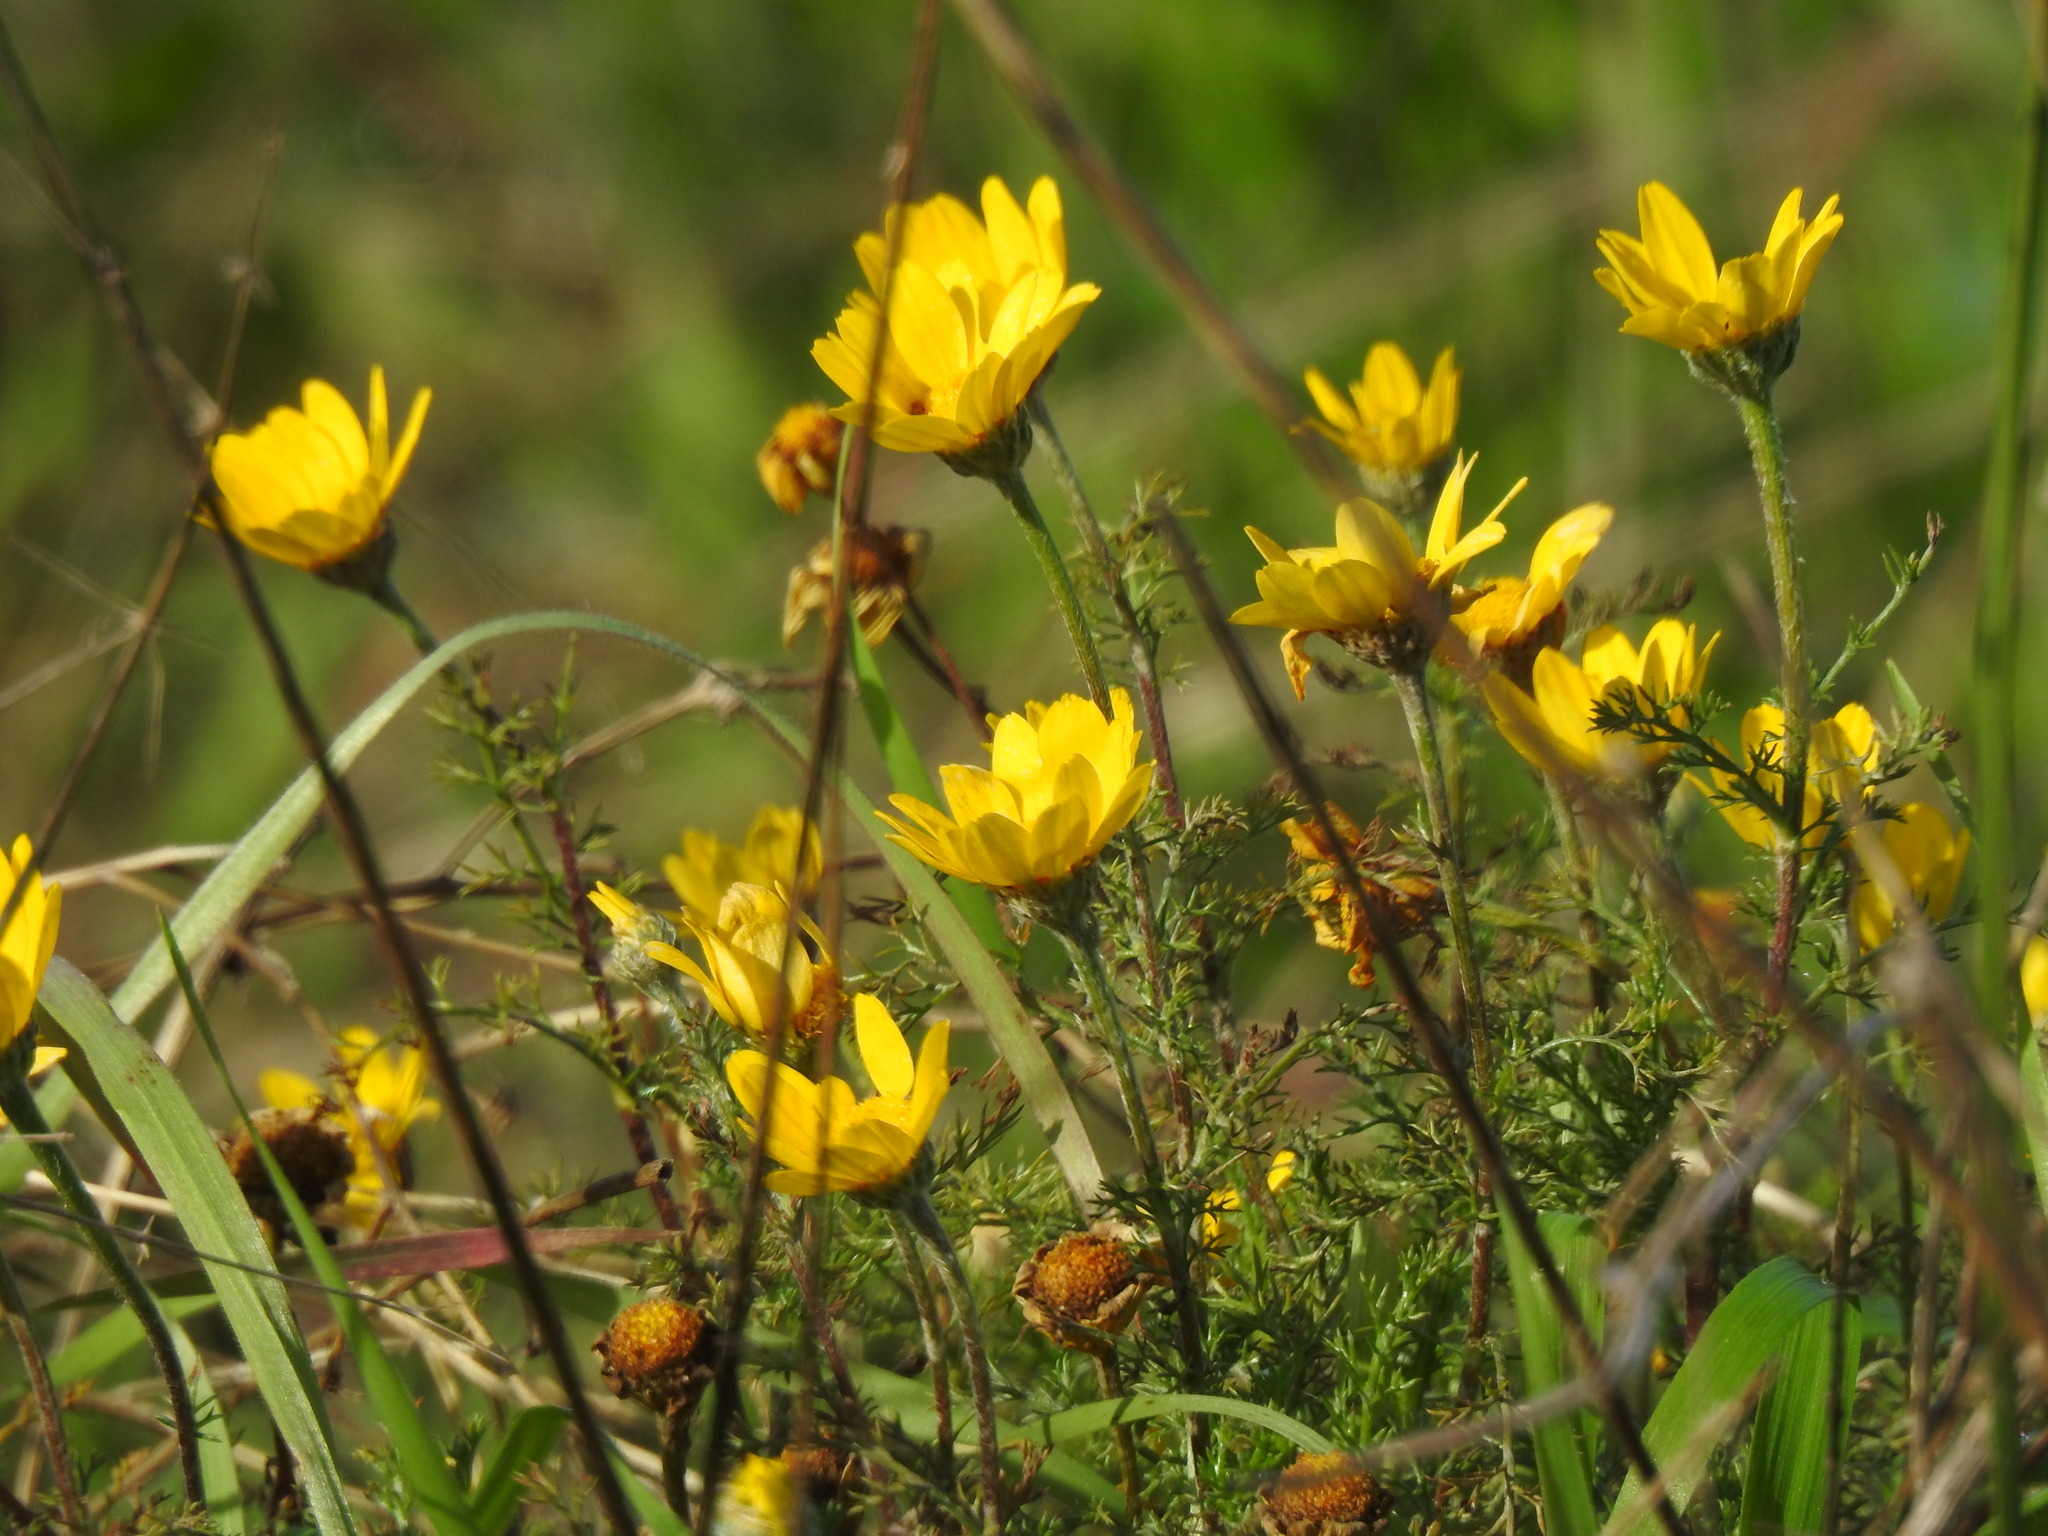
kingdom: Plantae
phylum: Tracheophyta
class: Magnoliopsida
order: Asterales
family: Asteraceae
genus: Anacyclus
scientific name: Anacyclus radiatus
